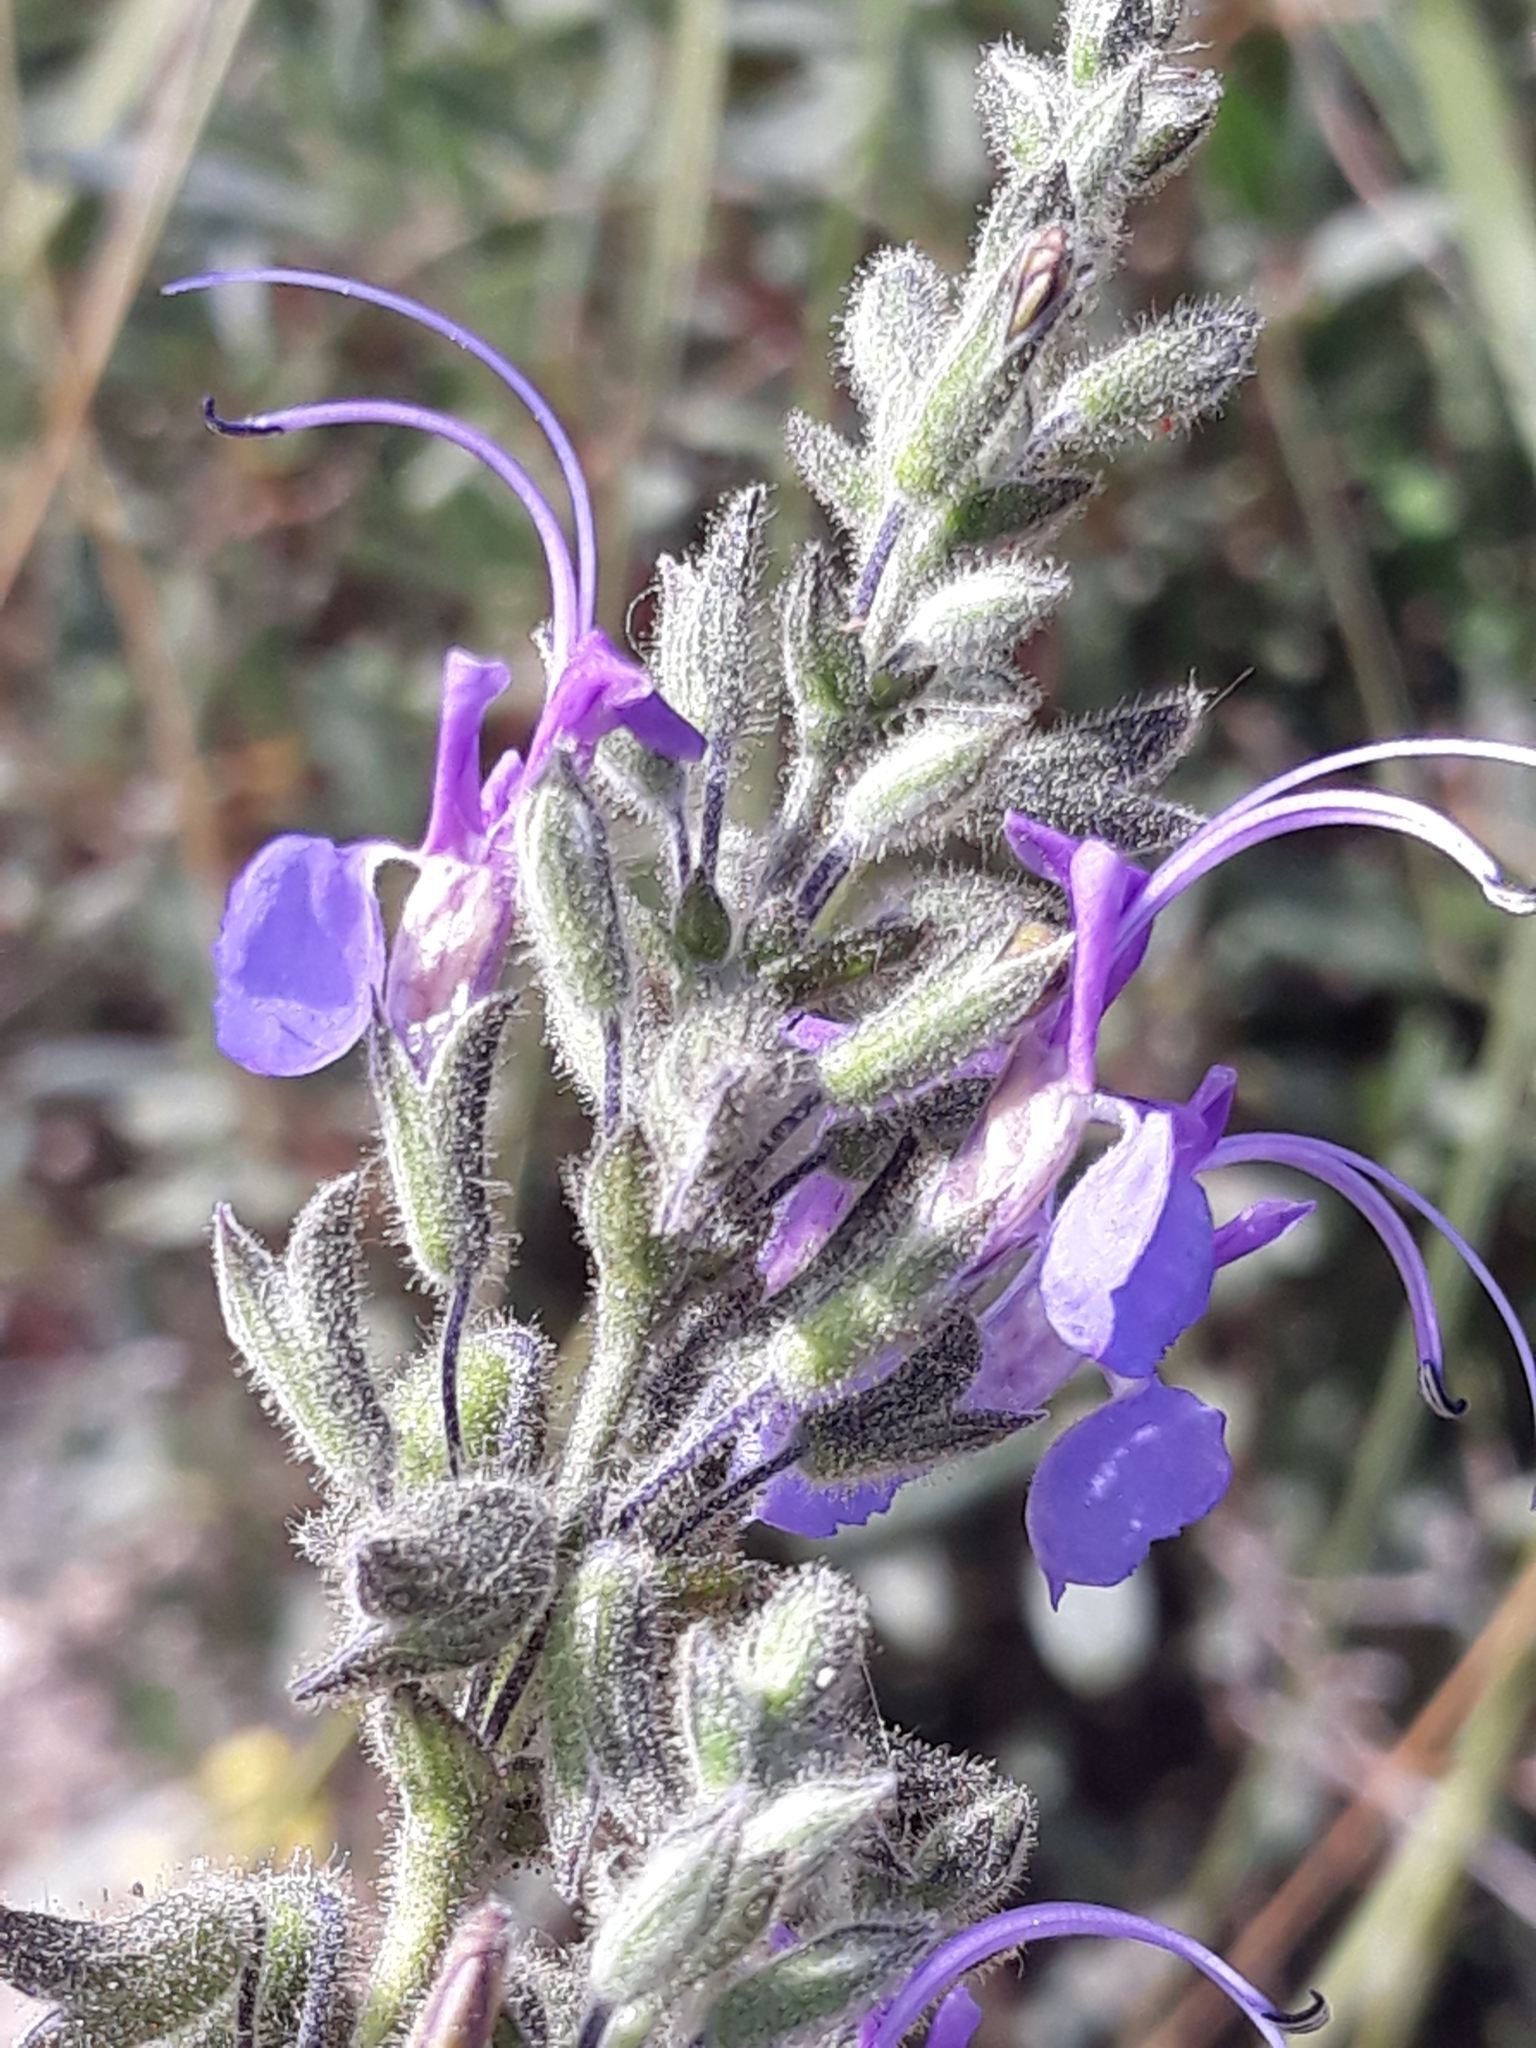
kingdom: Plantae
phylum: Tracheophyta
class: Magnoliopsida
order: Lamiales
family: Lamiaceae
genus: Salvia
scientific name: Salvia jordanii
